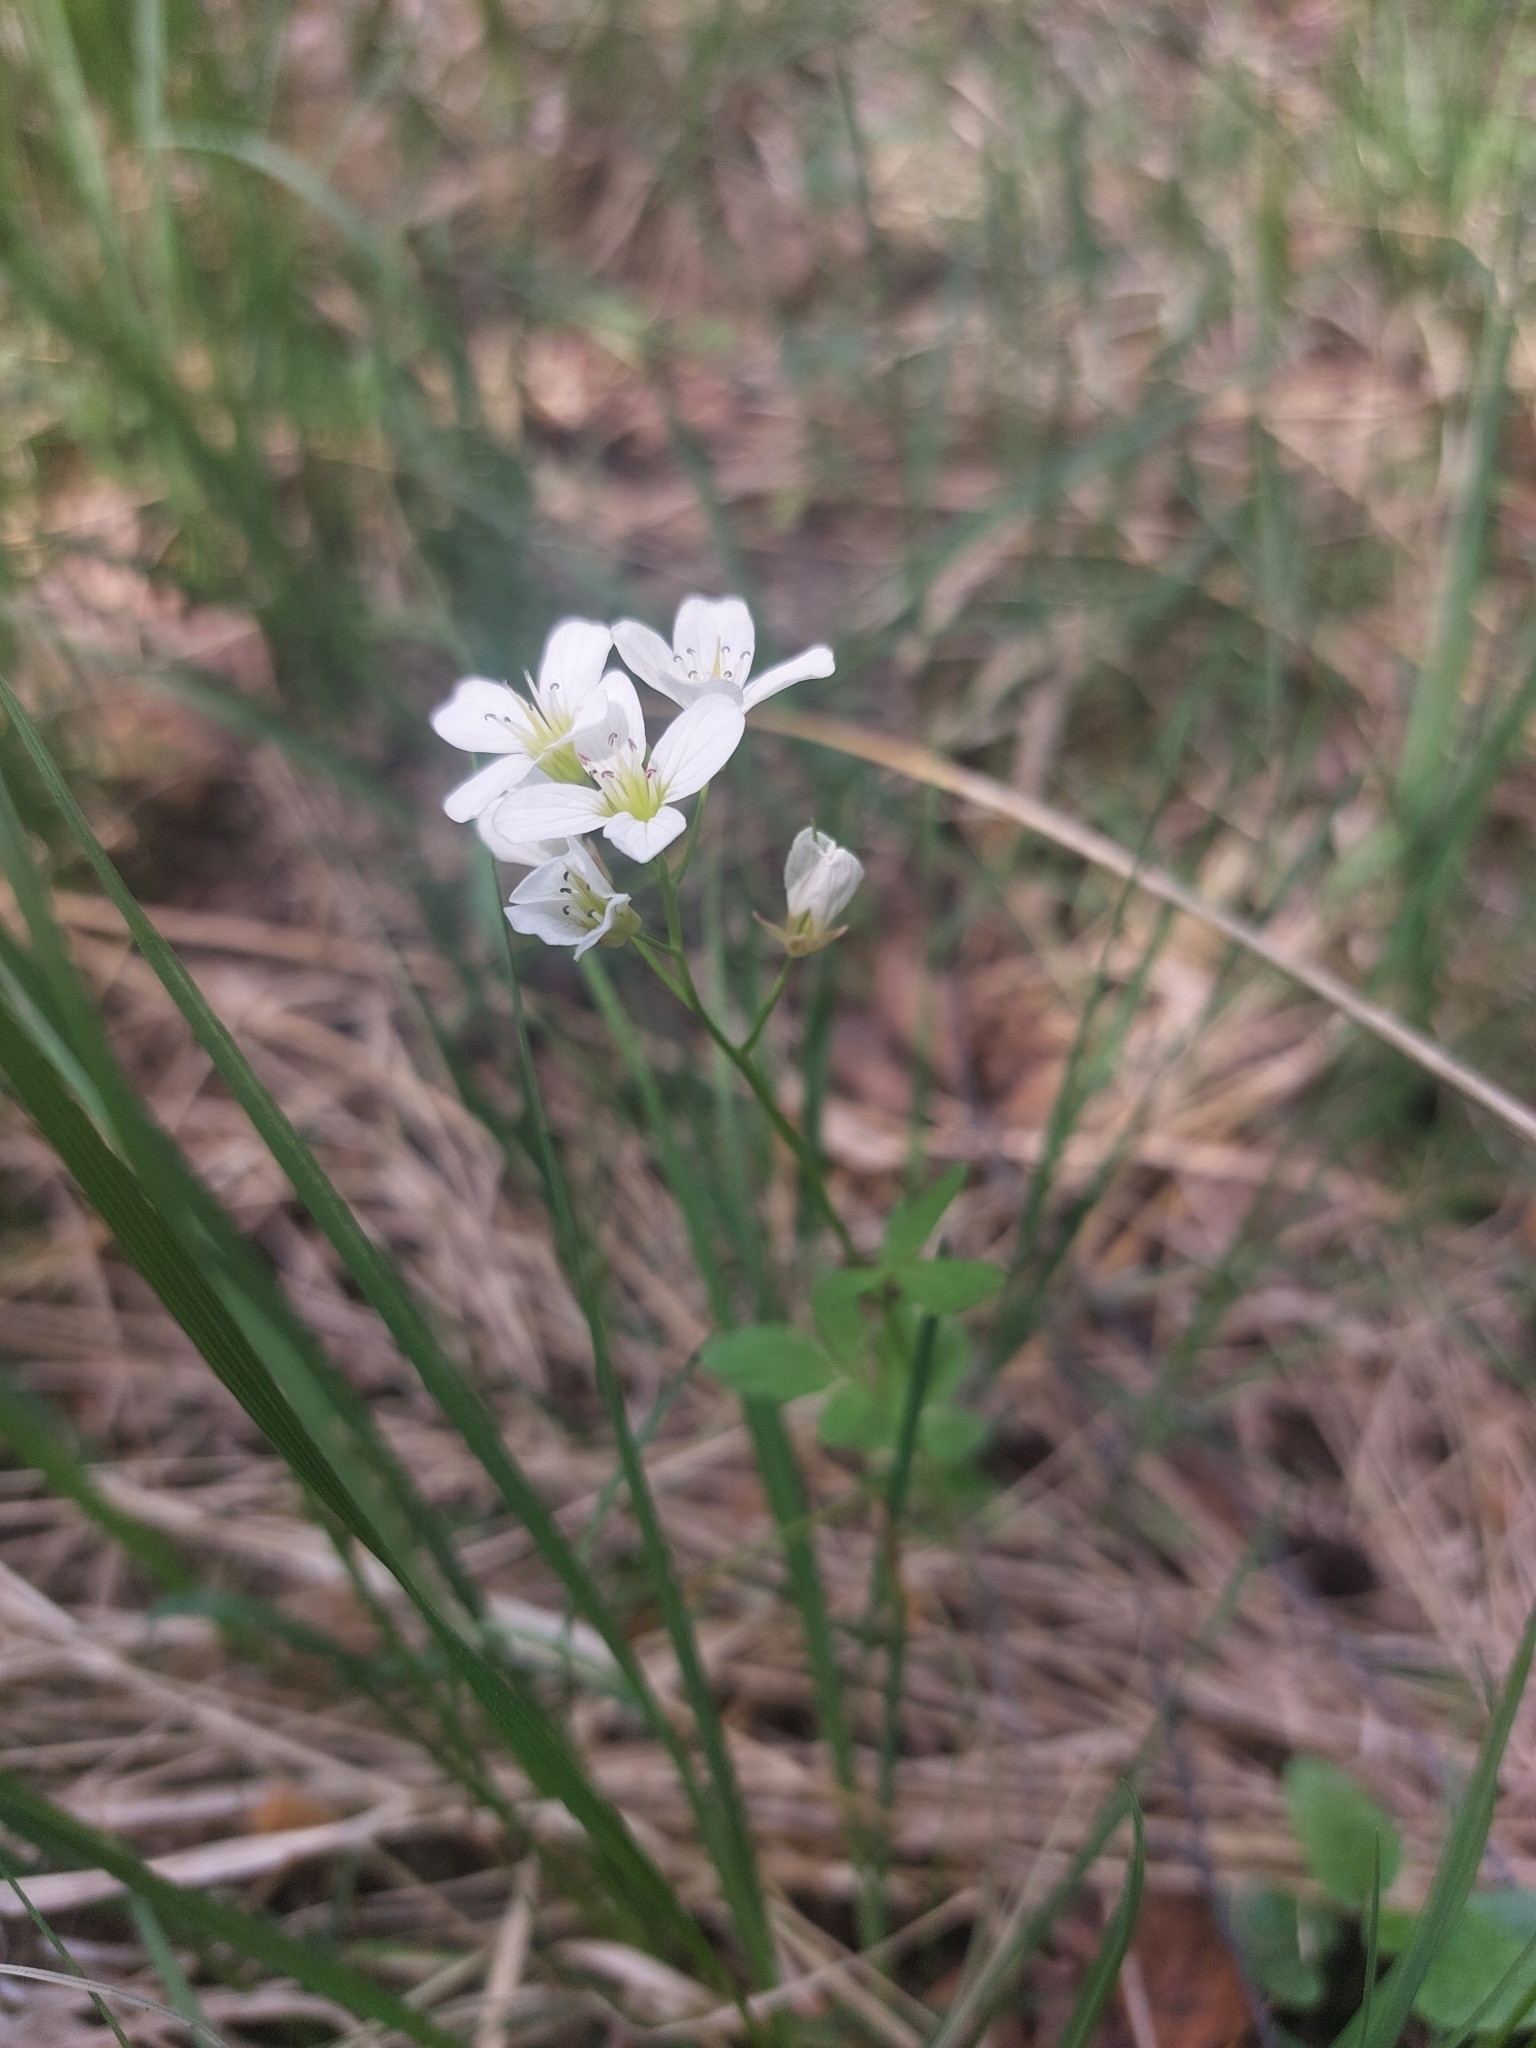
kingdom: Plantae
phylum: Tracheophyta
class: Magnoliopsida
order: Brassicales
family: Brassicaceae
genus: Cardamine
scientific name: Cardamine amara
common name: Large bitter-cress
